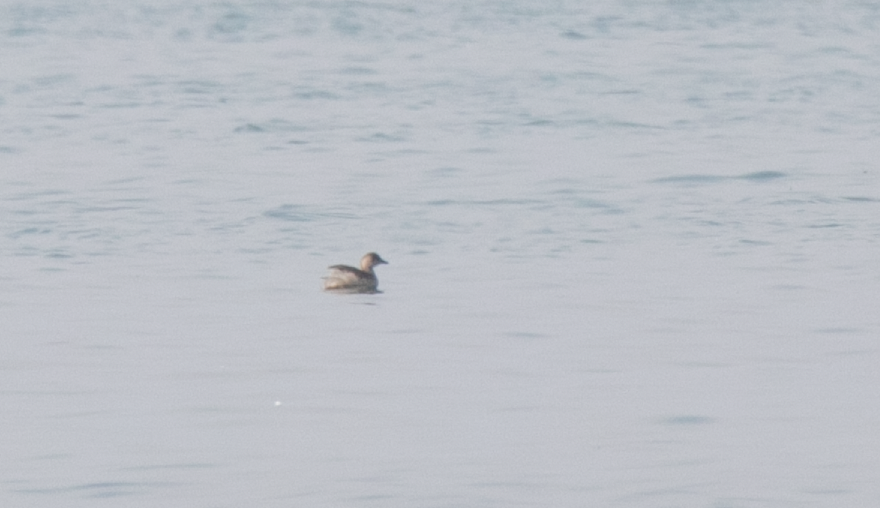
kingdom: Animalia
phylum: Chordata
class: Aves
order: Podicipediformes
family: Podicipedidae
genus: Tachybaptus
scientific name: Tachybaptus ruficollis
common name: Little grebe
